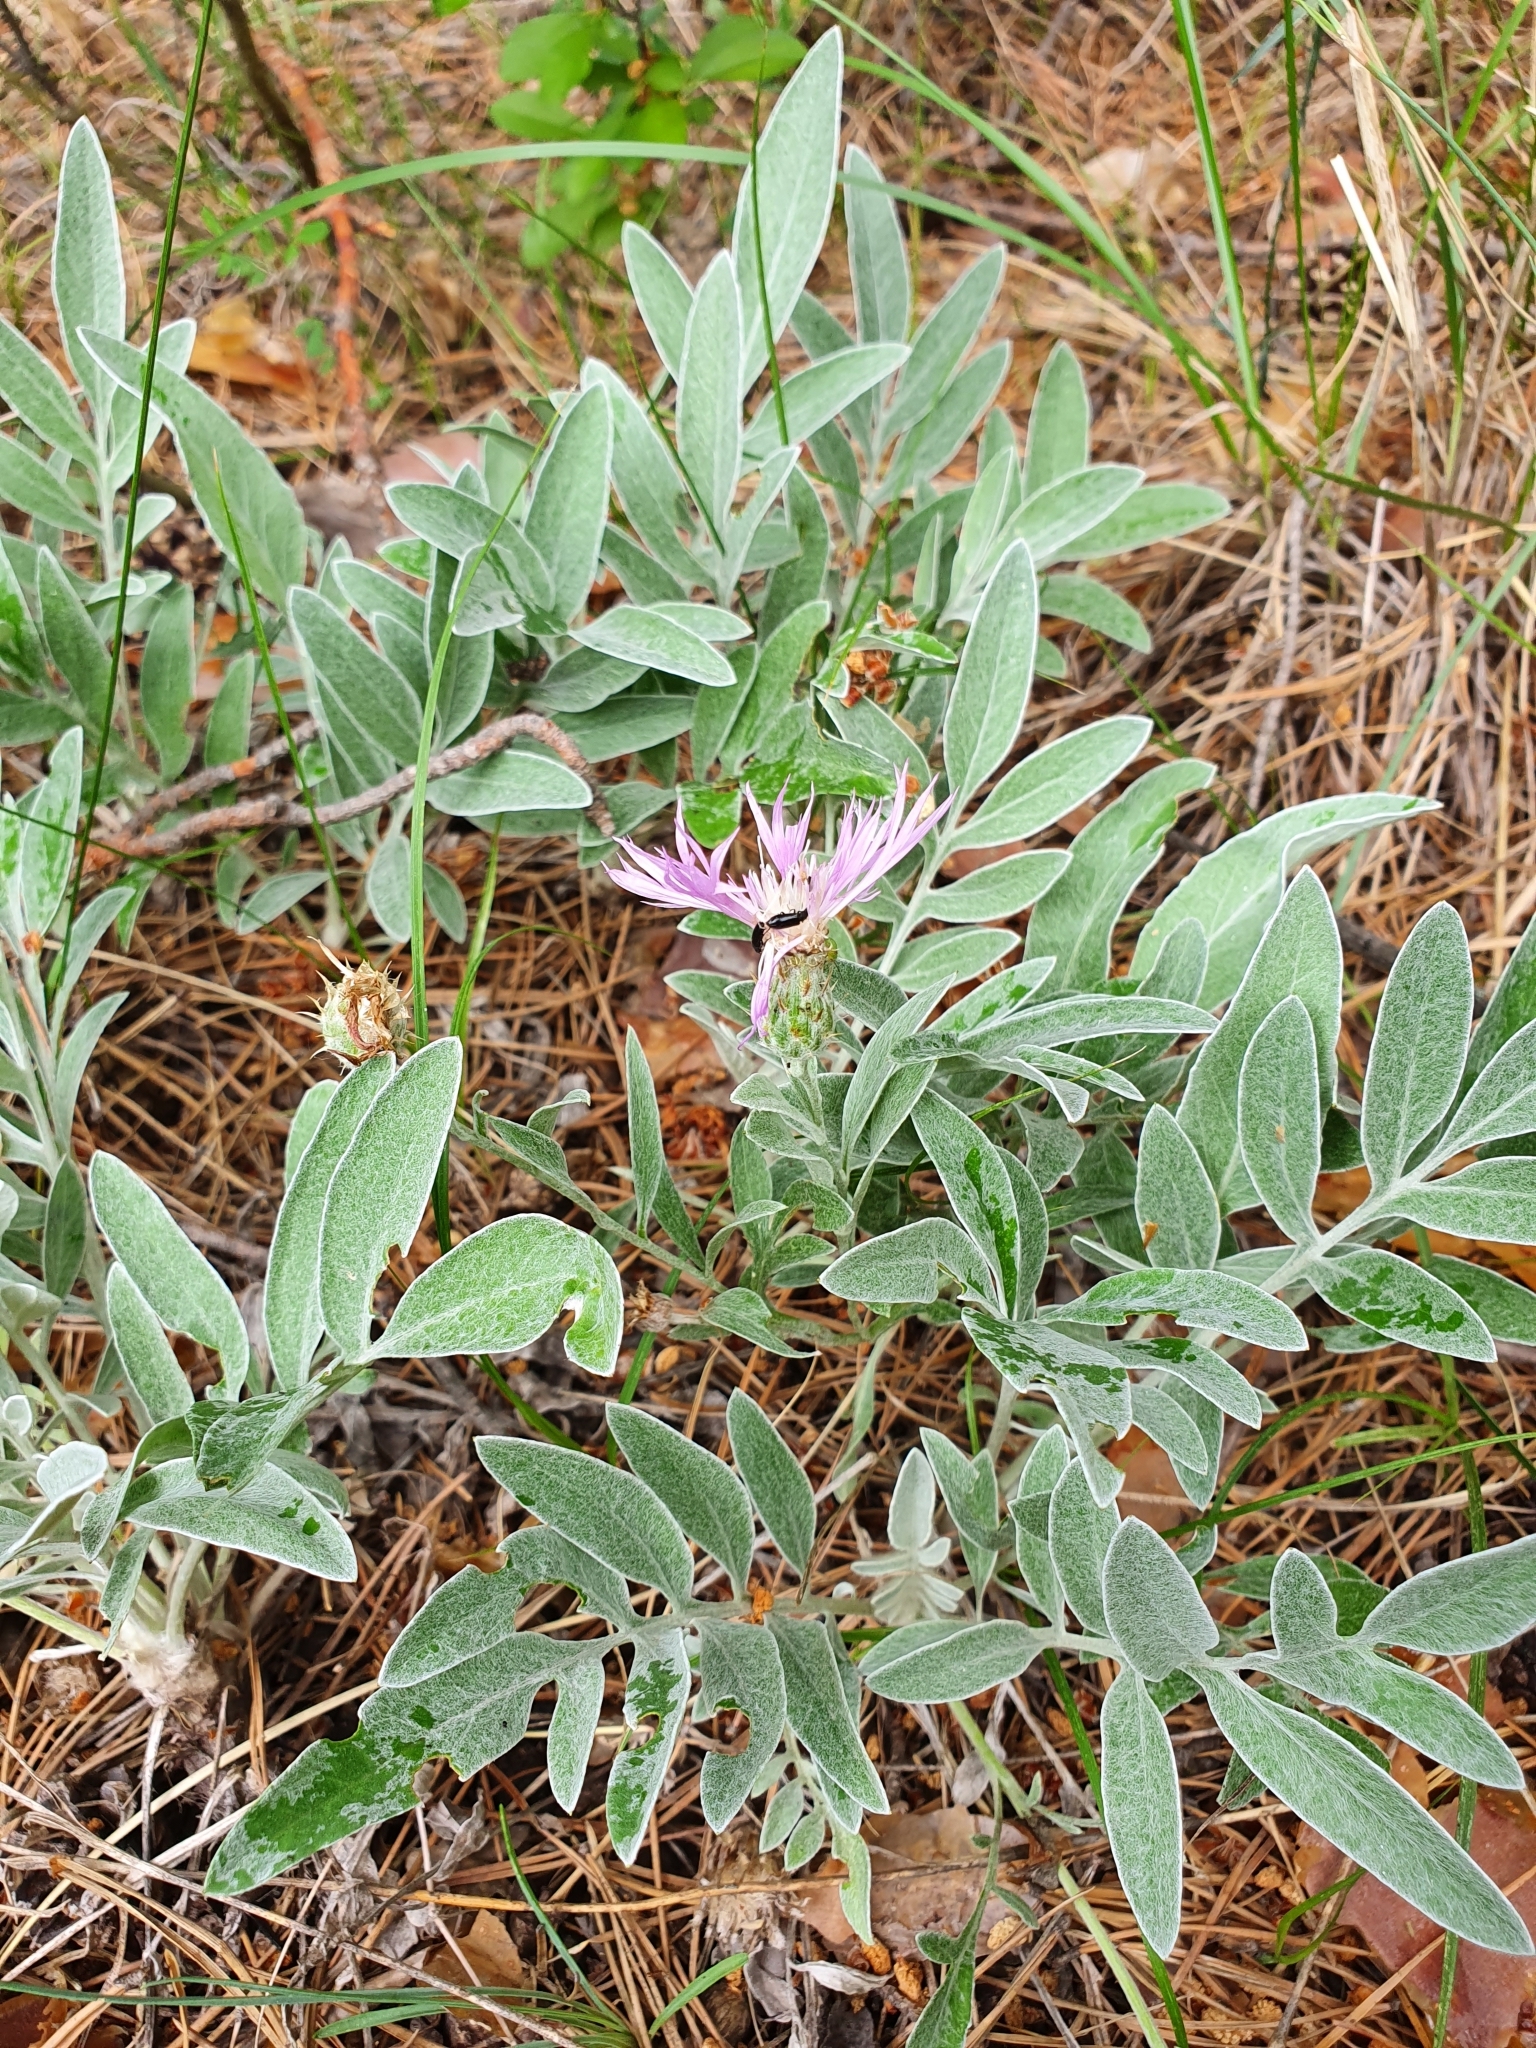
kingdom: Plantae
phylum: Tracheophyta
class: Magnoliopsida
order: Asterales
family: Asteraceae
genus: Psephellus
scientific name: Psephellus sumensis
